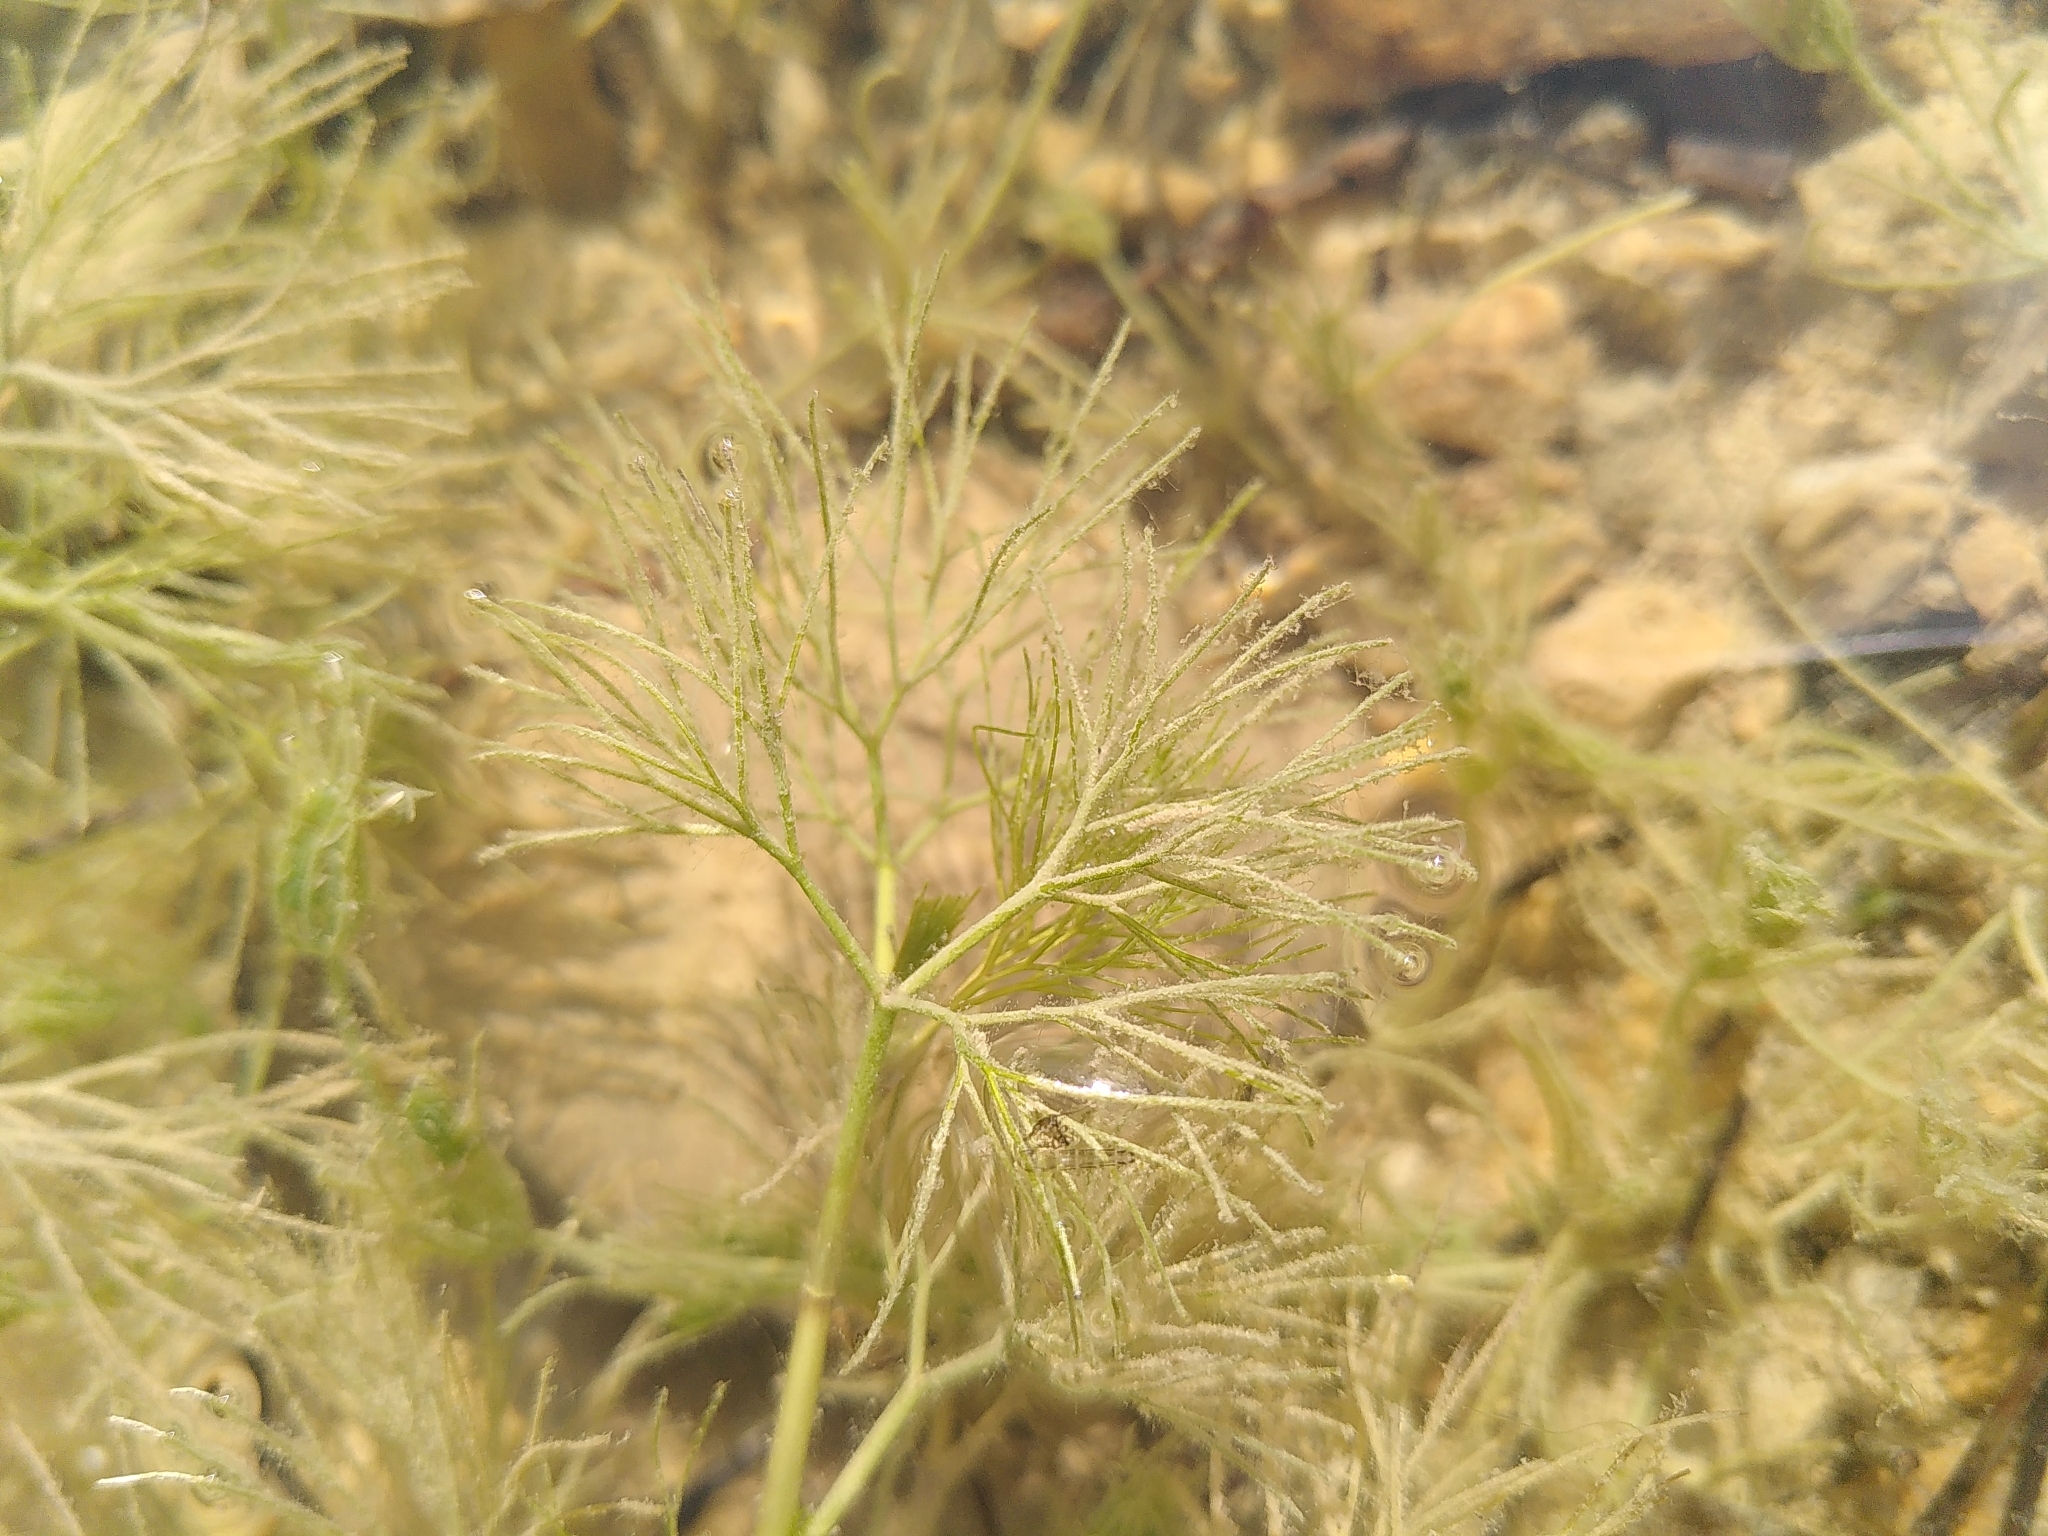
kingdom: Plantae
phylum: Tracheophyta
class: Magnoliopsida
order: Ranunculales
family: Ranunculaceae
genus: Ranunculus
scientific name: Ranunculus trichophyllus
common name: Thread-leaved water-crowfoot
